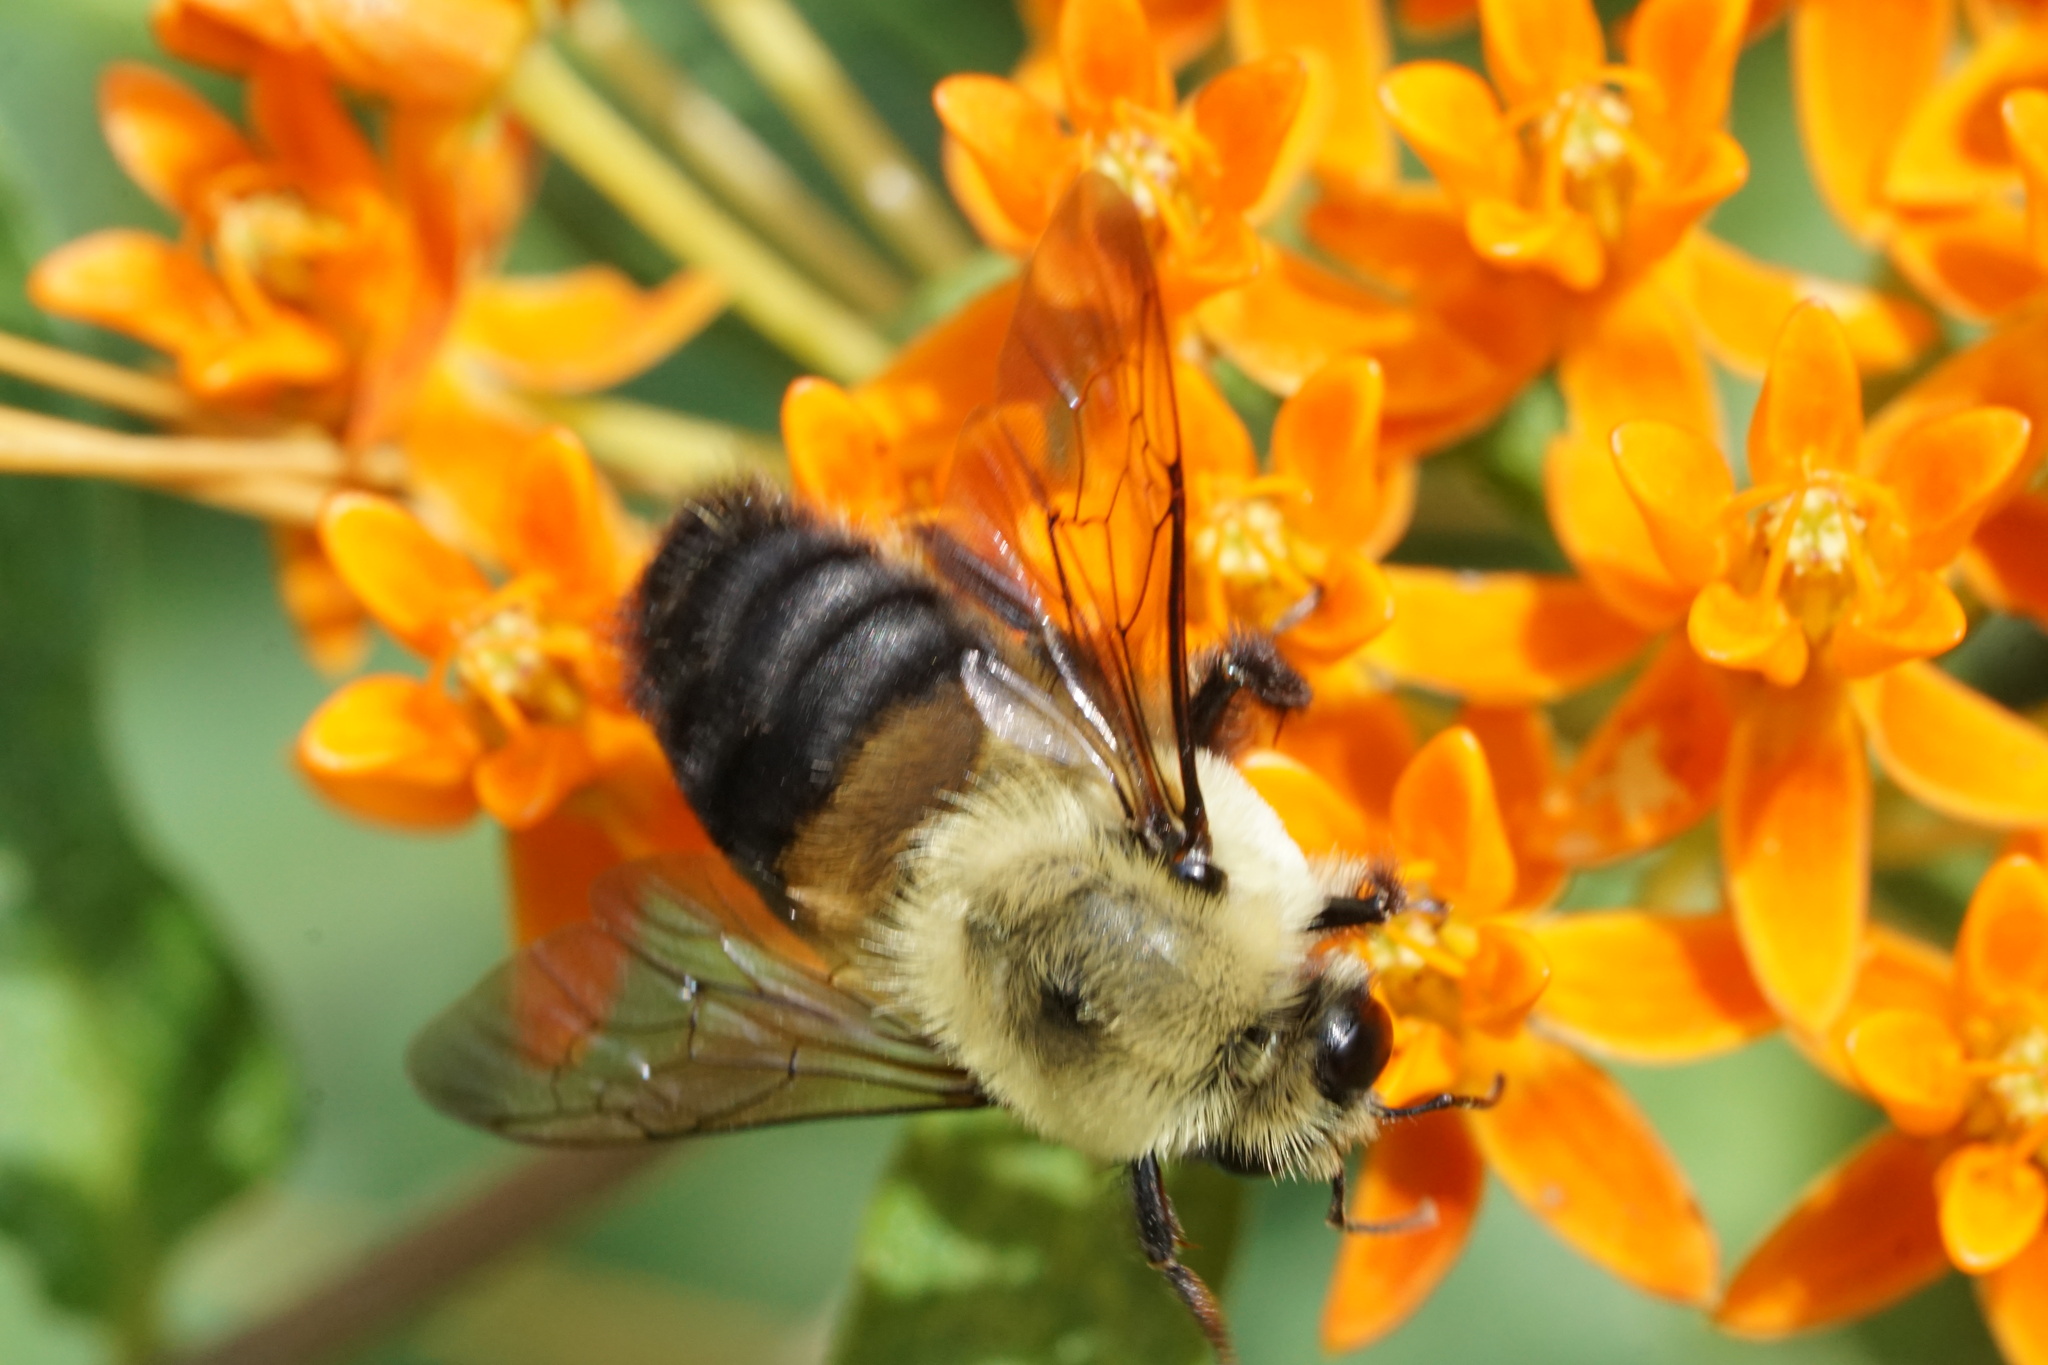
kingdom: Animalia
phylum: Arthropoda
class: Insecta
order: Hymenoptera
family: Apidae
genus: Bombus
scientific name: Bombus griseocollis
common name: Brown-belted bumble bee
